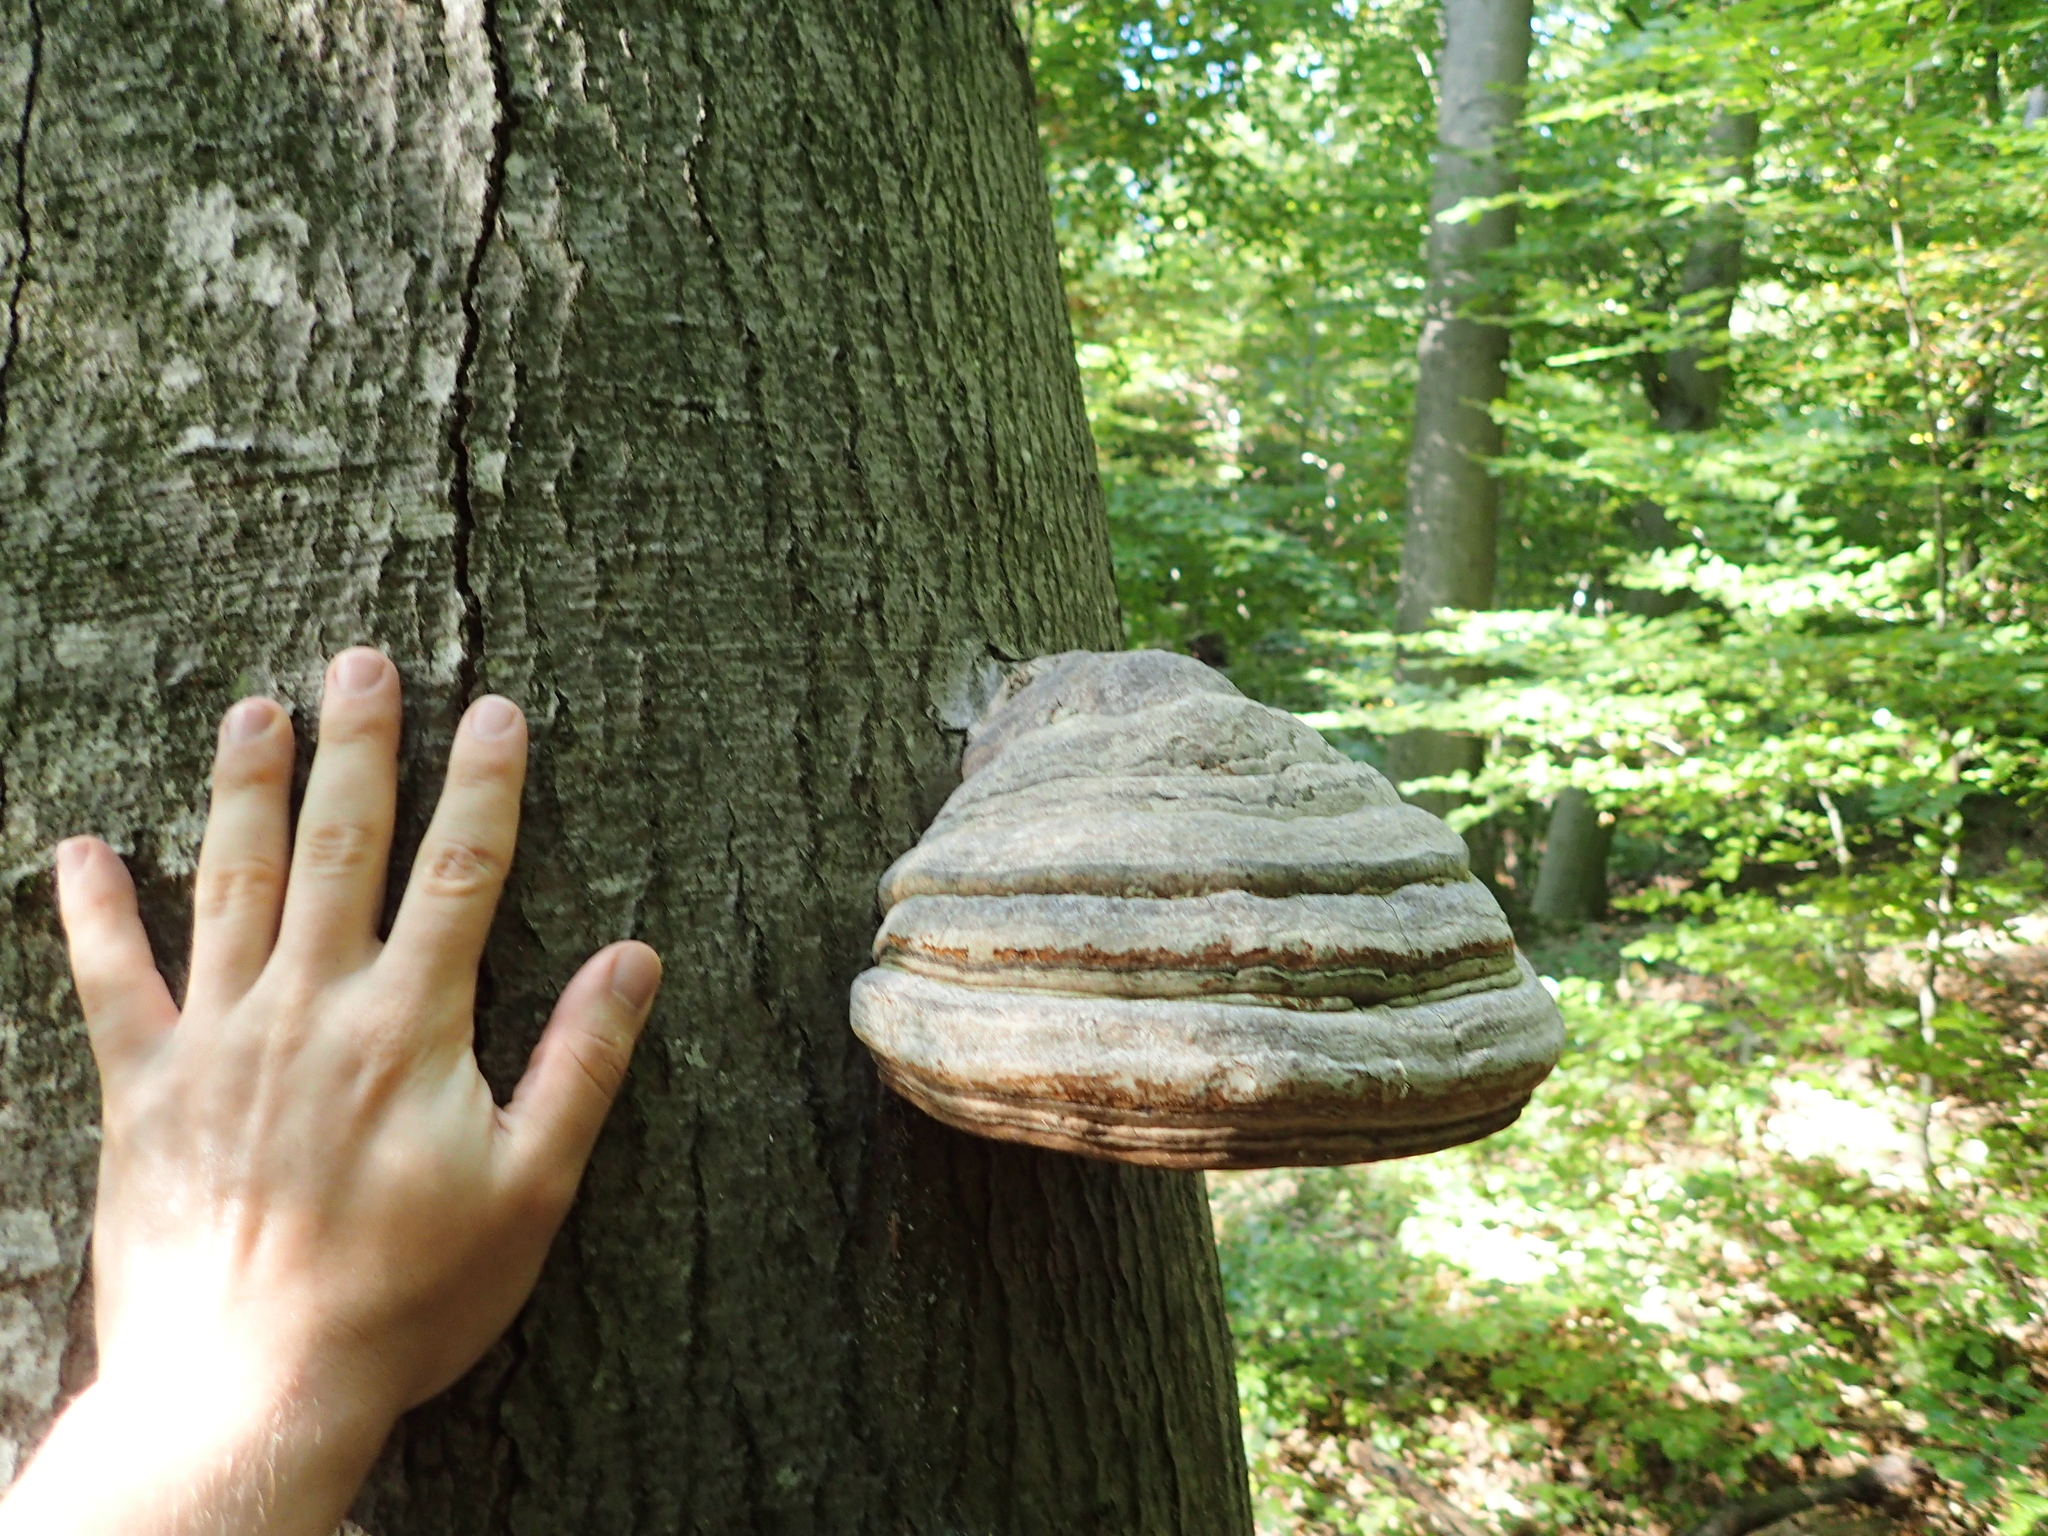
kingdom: Fungi
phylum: Basidiomycota
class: Agaricomycetes
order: Polyporales
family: Polyporaceae
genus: Fomes
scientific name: Fomes fomentarius
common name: Hoof fungus
